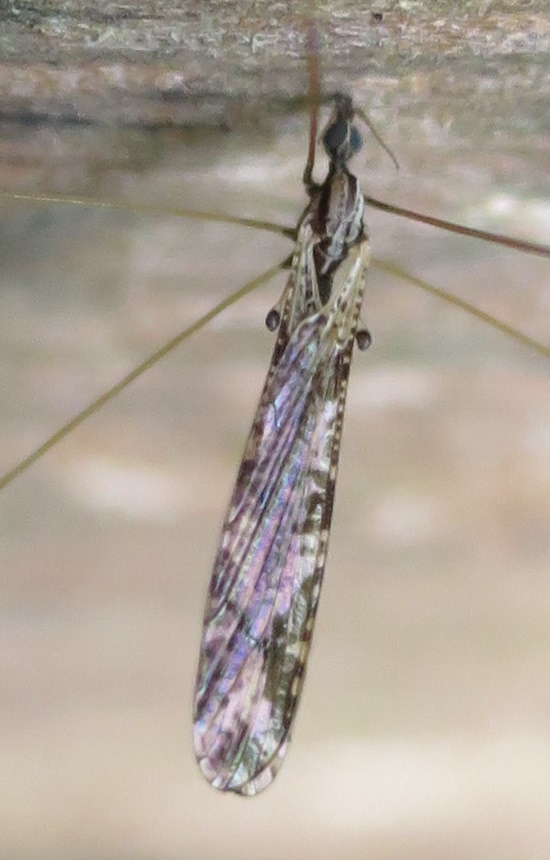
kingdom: Animalia
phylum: Arthropoda
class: Insecta
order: Diptera
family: Limoniidae
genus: Discobola
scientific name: Discobola striata
